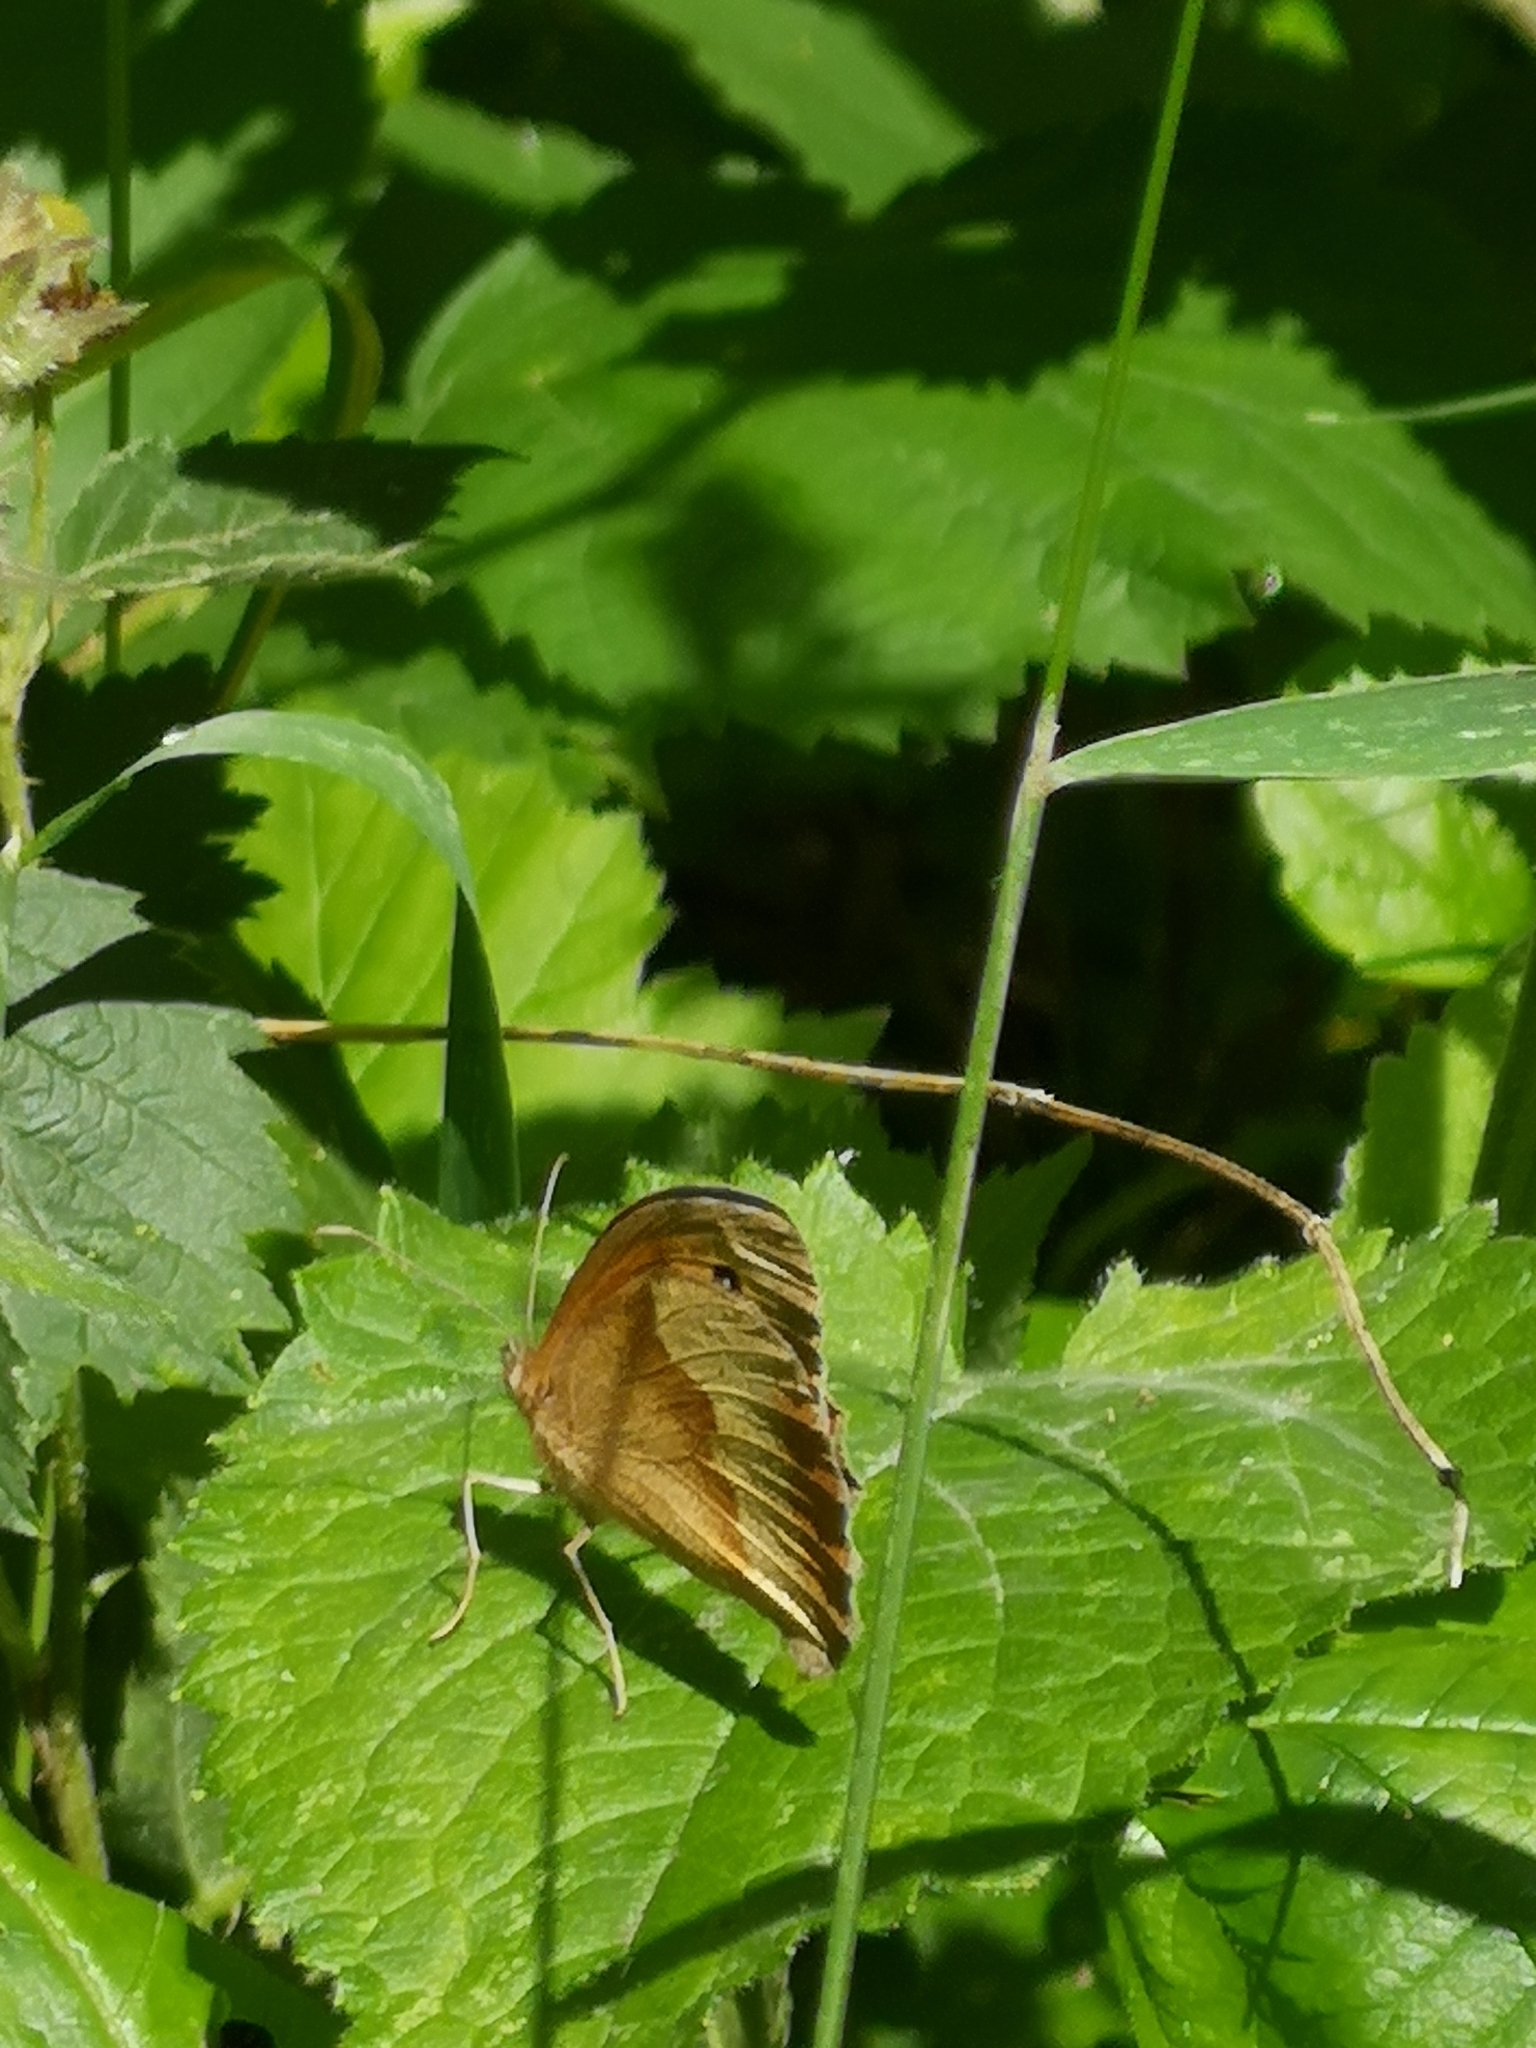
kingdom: Animalia
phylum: Arthropoda
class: Insecta
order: Lepidoptera
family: Nymphalidae
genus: Maniola
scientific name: Maniola jurtina
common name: Meadow brown
